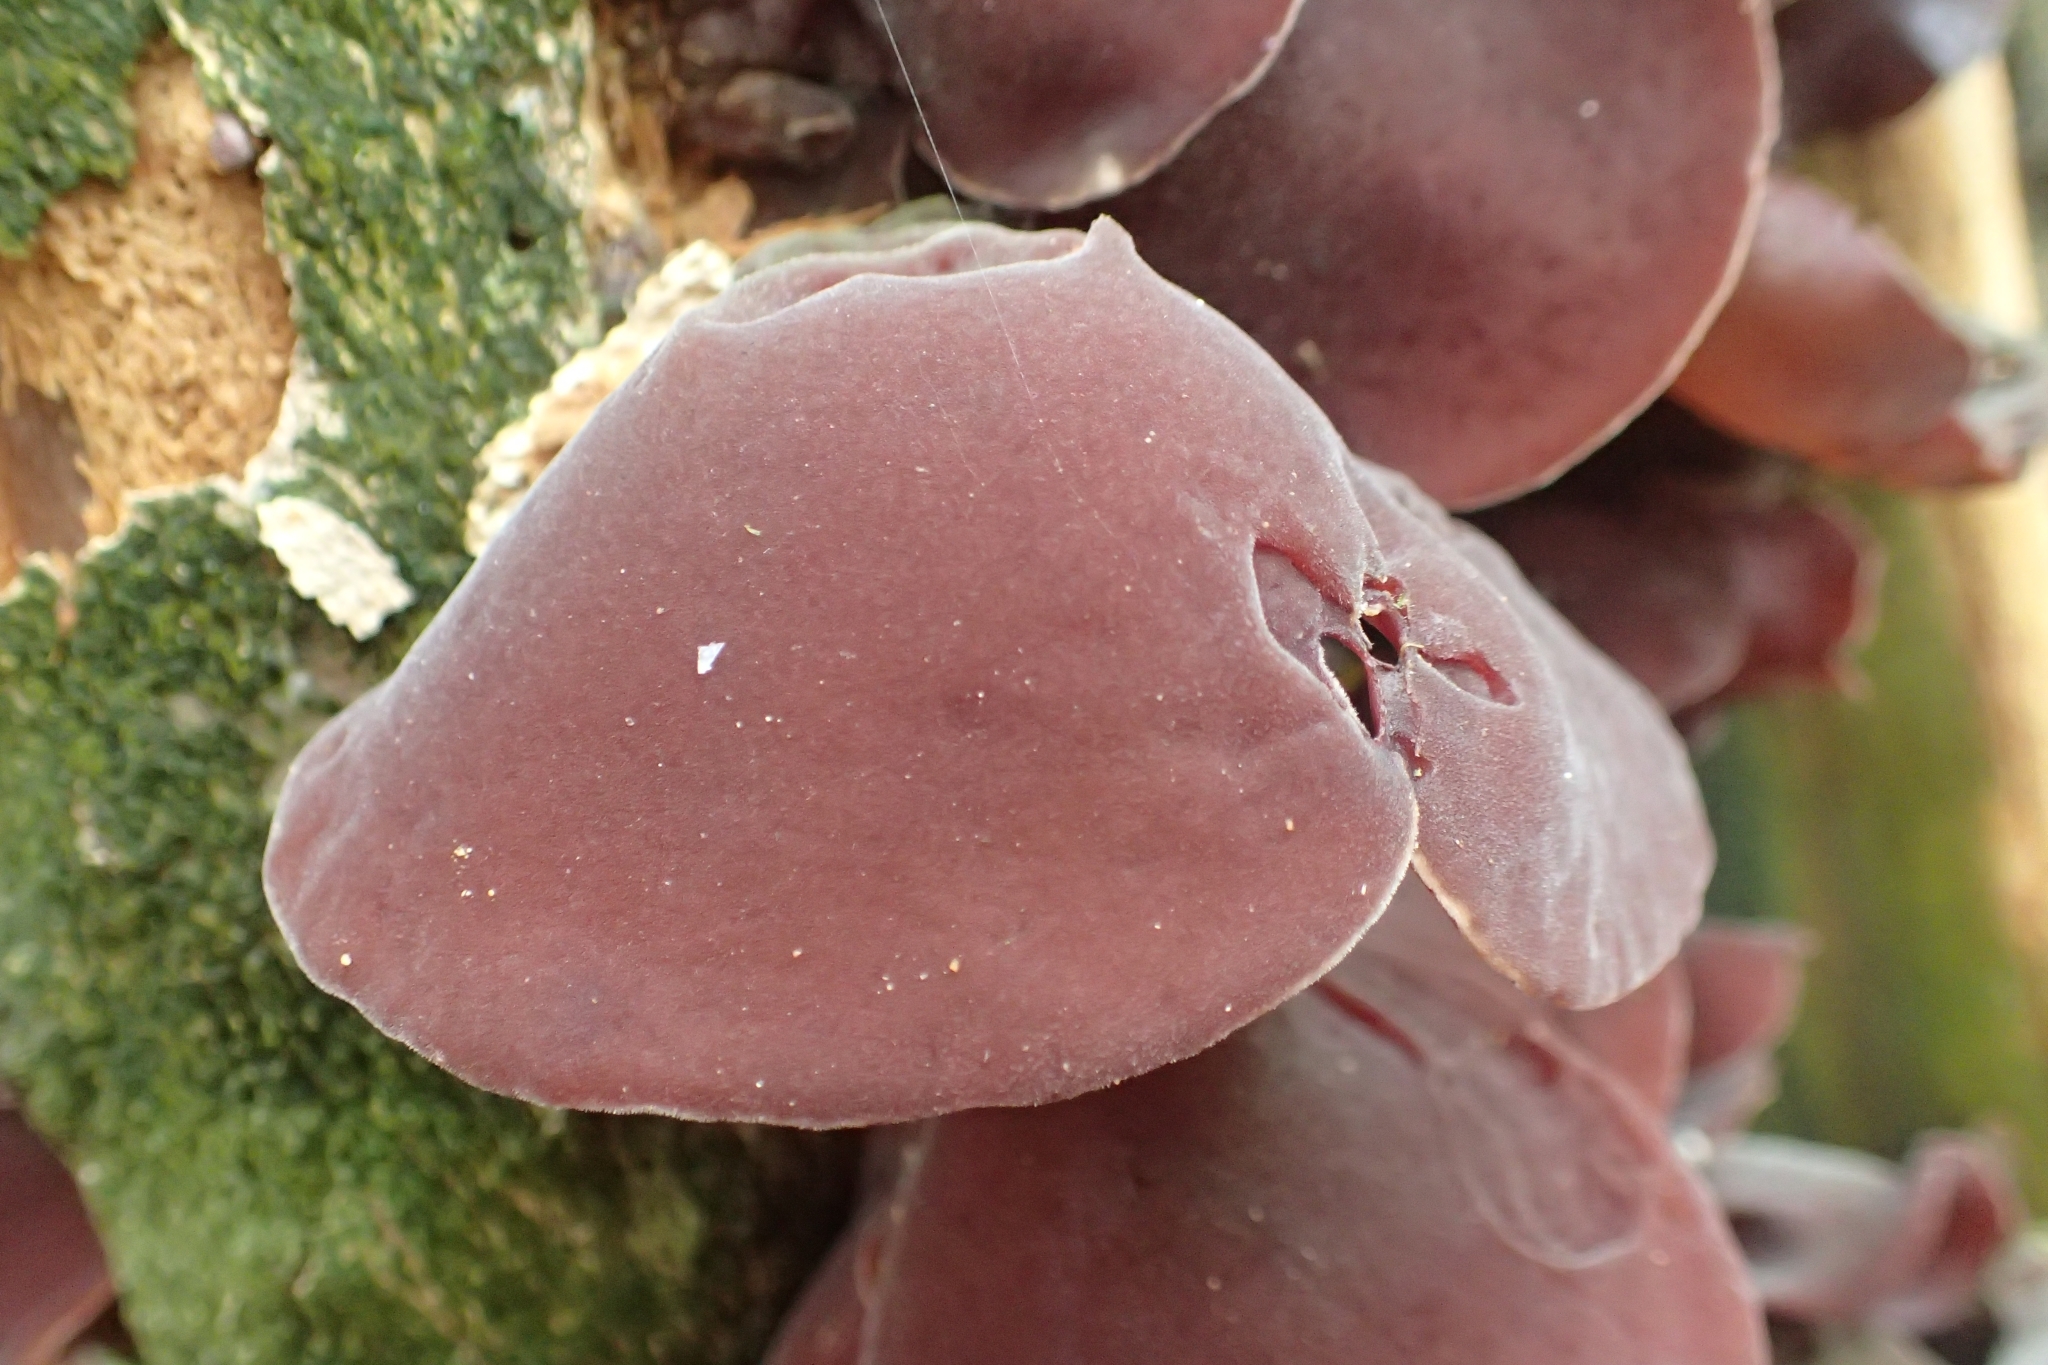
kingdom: Fungi
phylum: Basidiomycota
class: Agaricomycetes
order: Auriculariales
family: Auriculariaceae
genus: Auricularia
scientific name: Auricularia cornea
